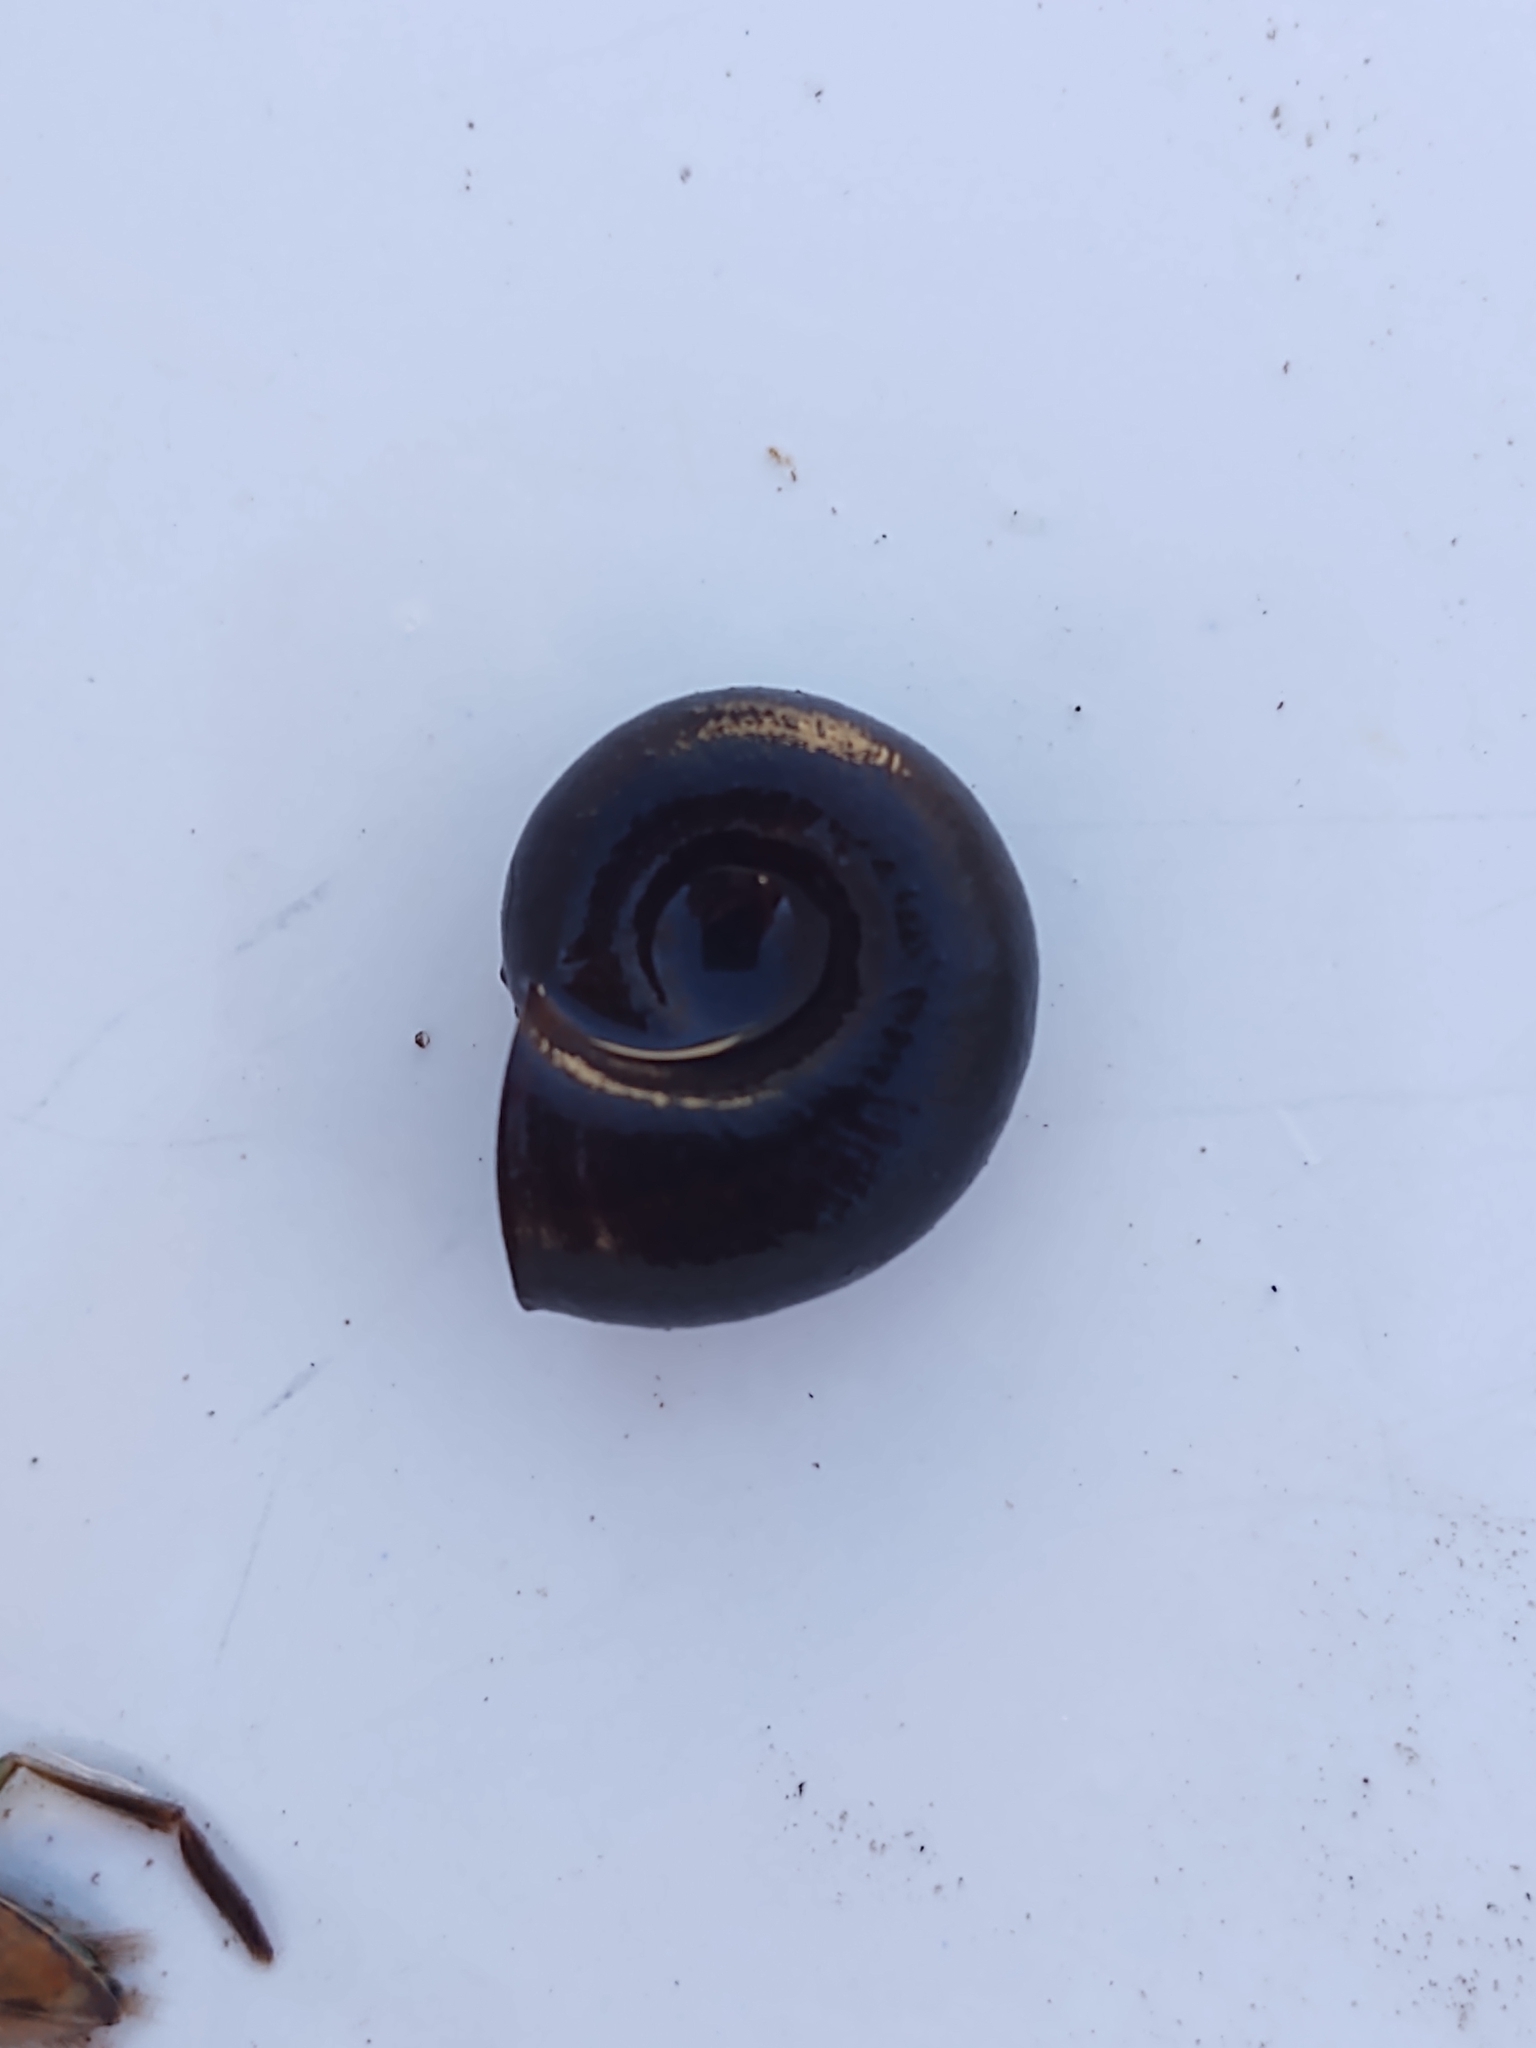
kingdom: Animalia
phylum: Mollusca
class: Gastropoda
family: Planorbidae
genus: Planorbarius
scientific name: Planorbarius corneus
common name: Great ramshorn
